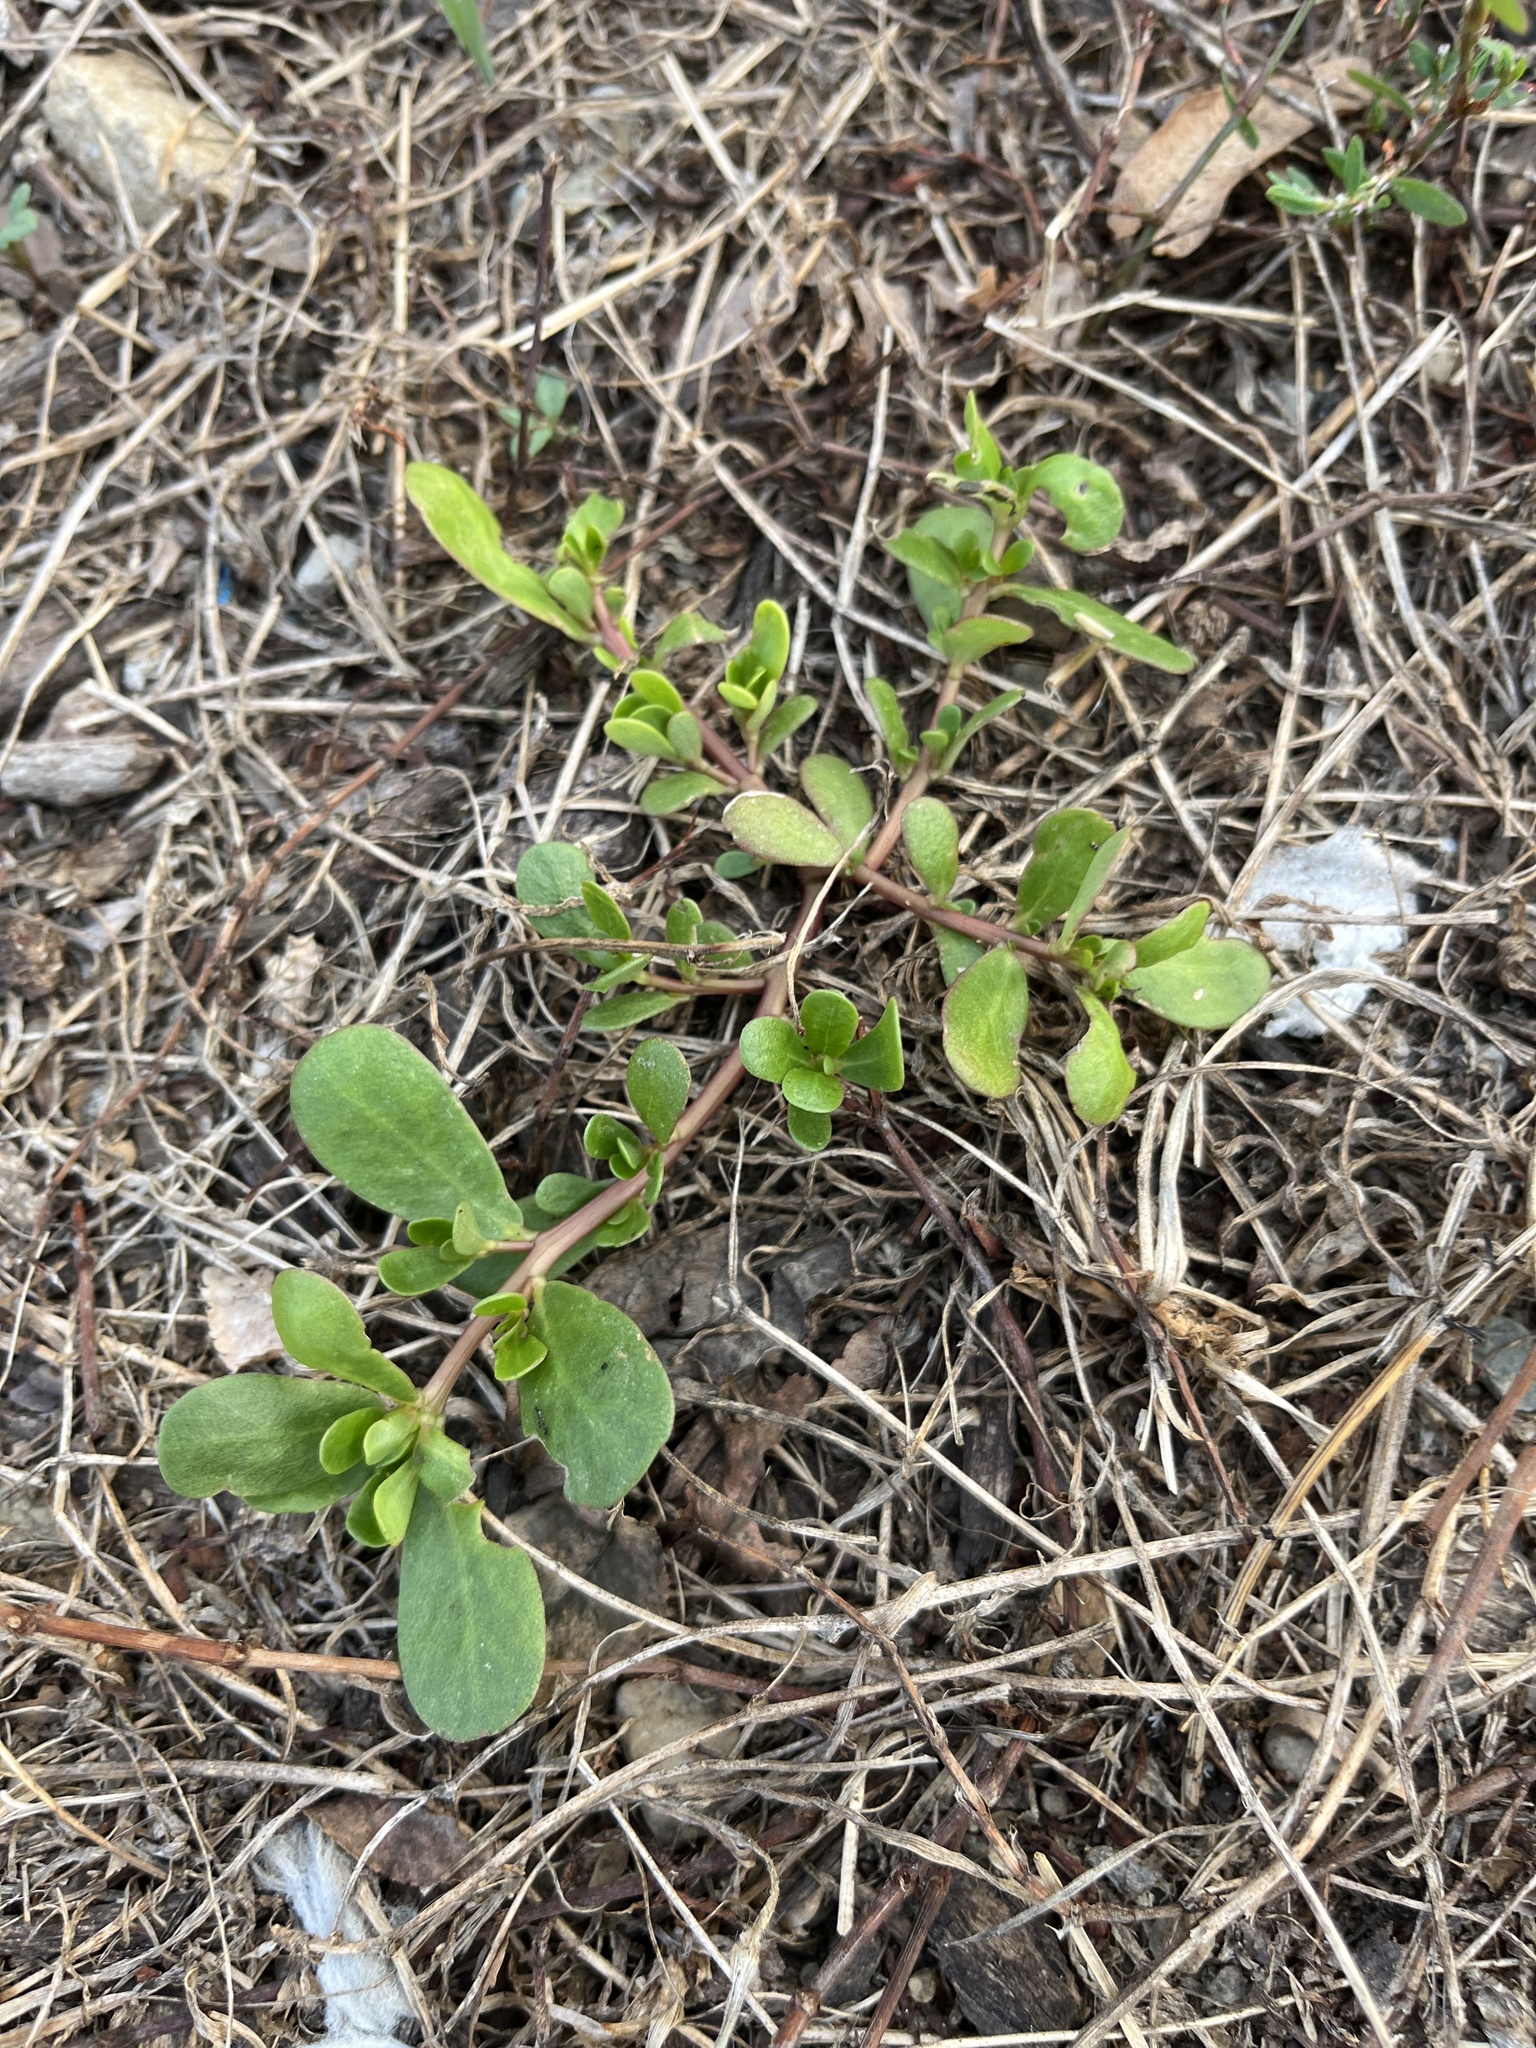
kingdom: Plantae
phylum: Tracheophyta
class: Magnoliopsida
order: Caryophyllales
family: Portulacaceae
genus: Portulaca
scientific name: Portulaca oleracea
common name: Common purslane
